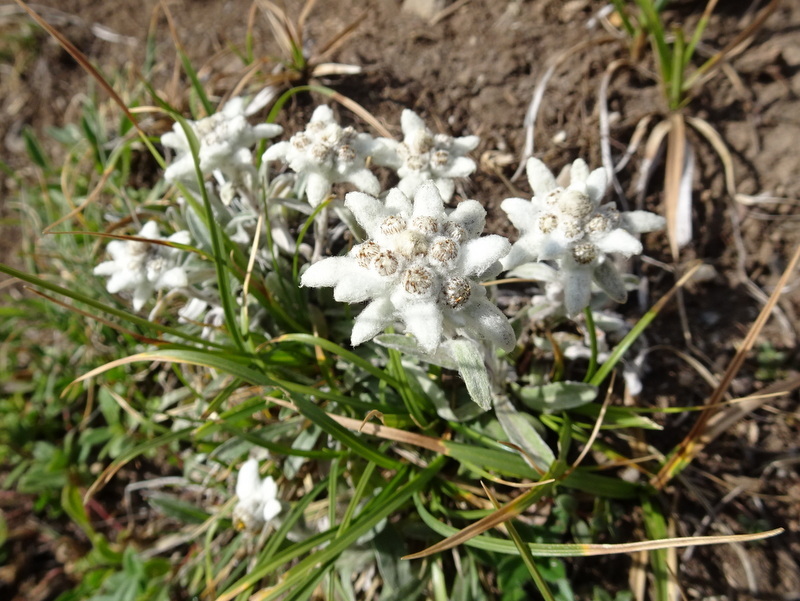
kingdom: Plantae
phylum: Tracheophyta
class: Magnoliopsida
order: Asterales
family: Asteraceae
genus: Leontopodium
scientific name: Leontopodium nivale
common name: Edelweiss
